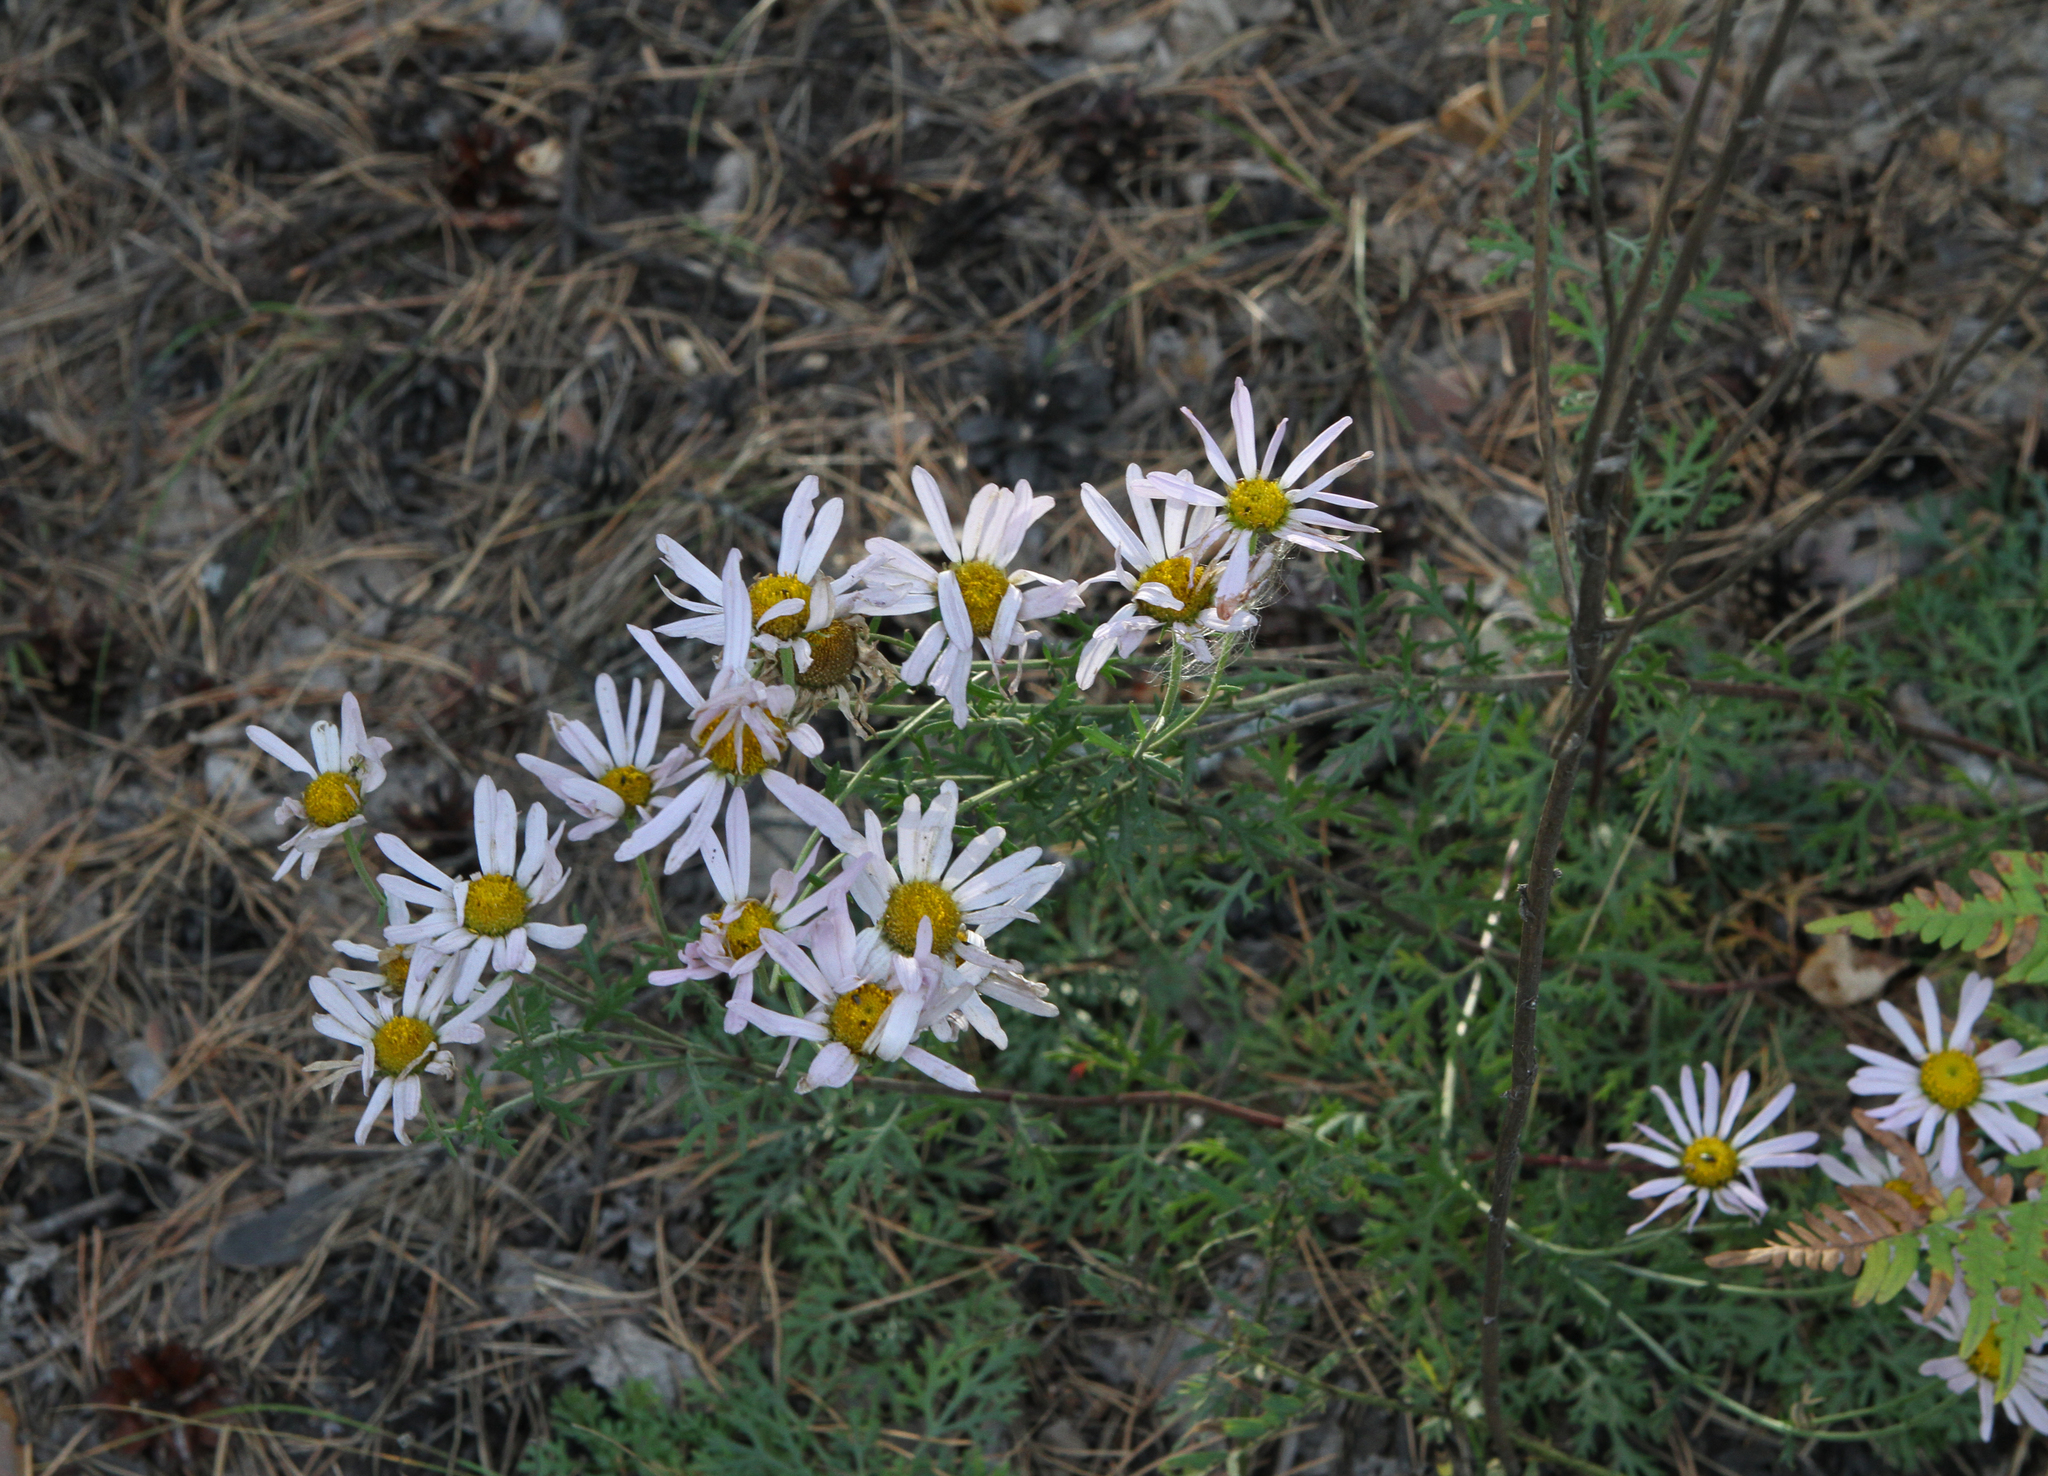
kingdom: Plantae
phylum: Tracheophyta
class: Magnoliopsida
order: Asterales
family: Asteraceae
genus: Chrysanthemum
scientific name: Chrysanthemum zawadzkii
